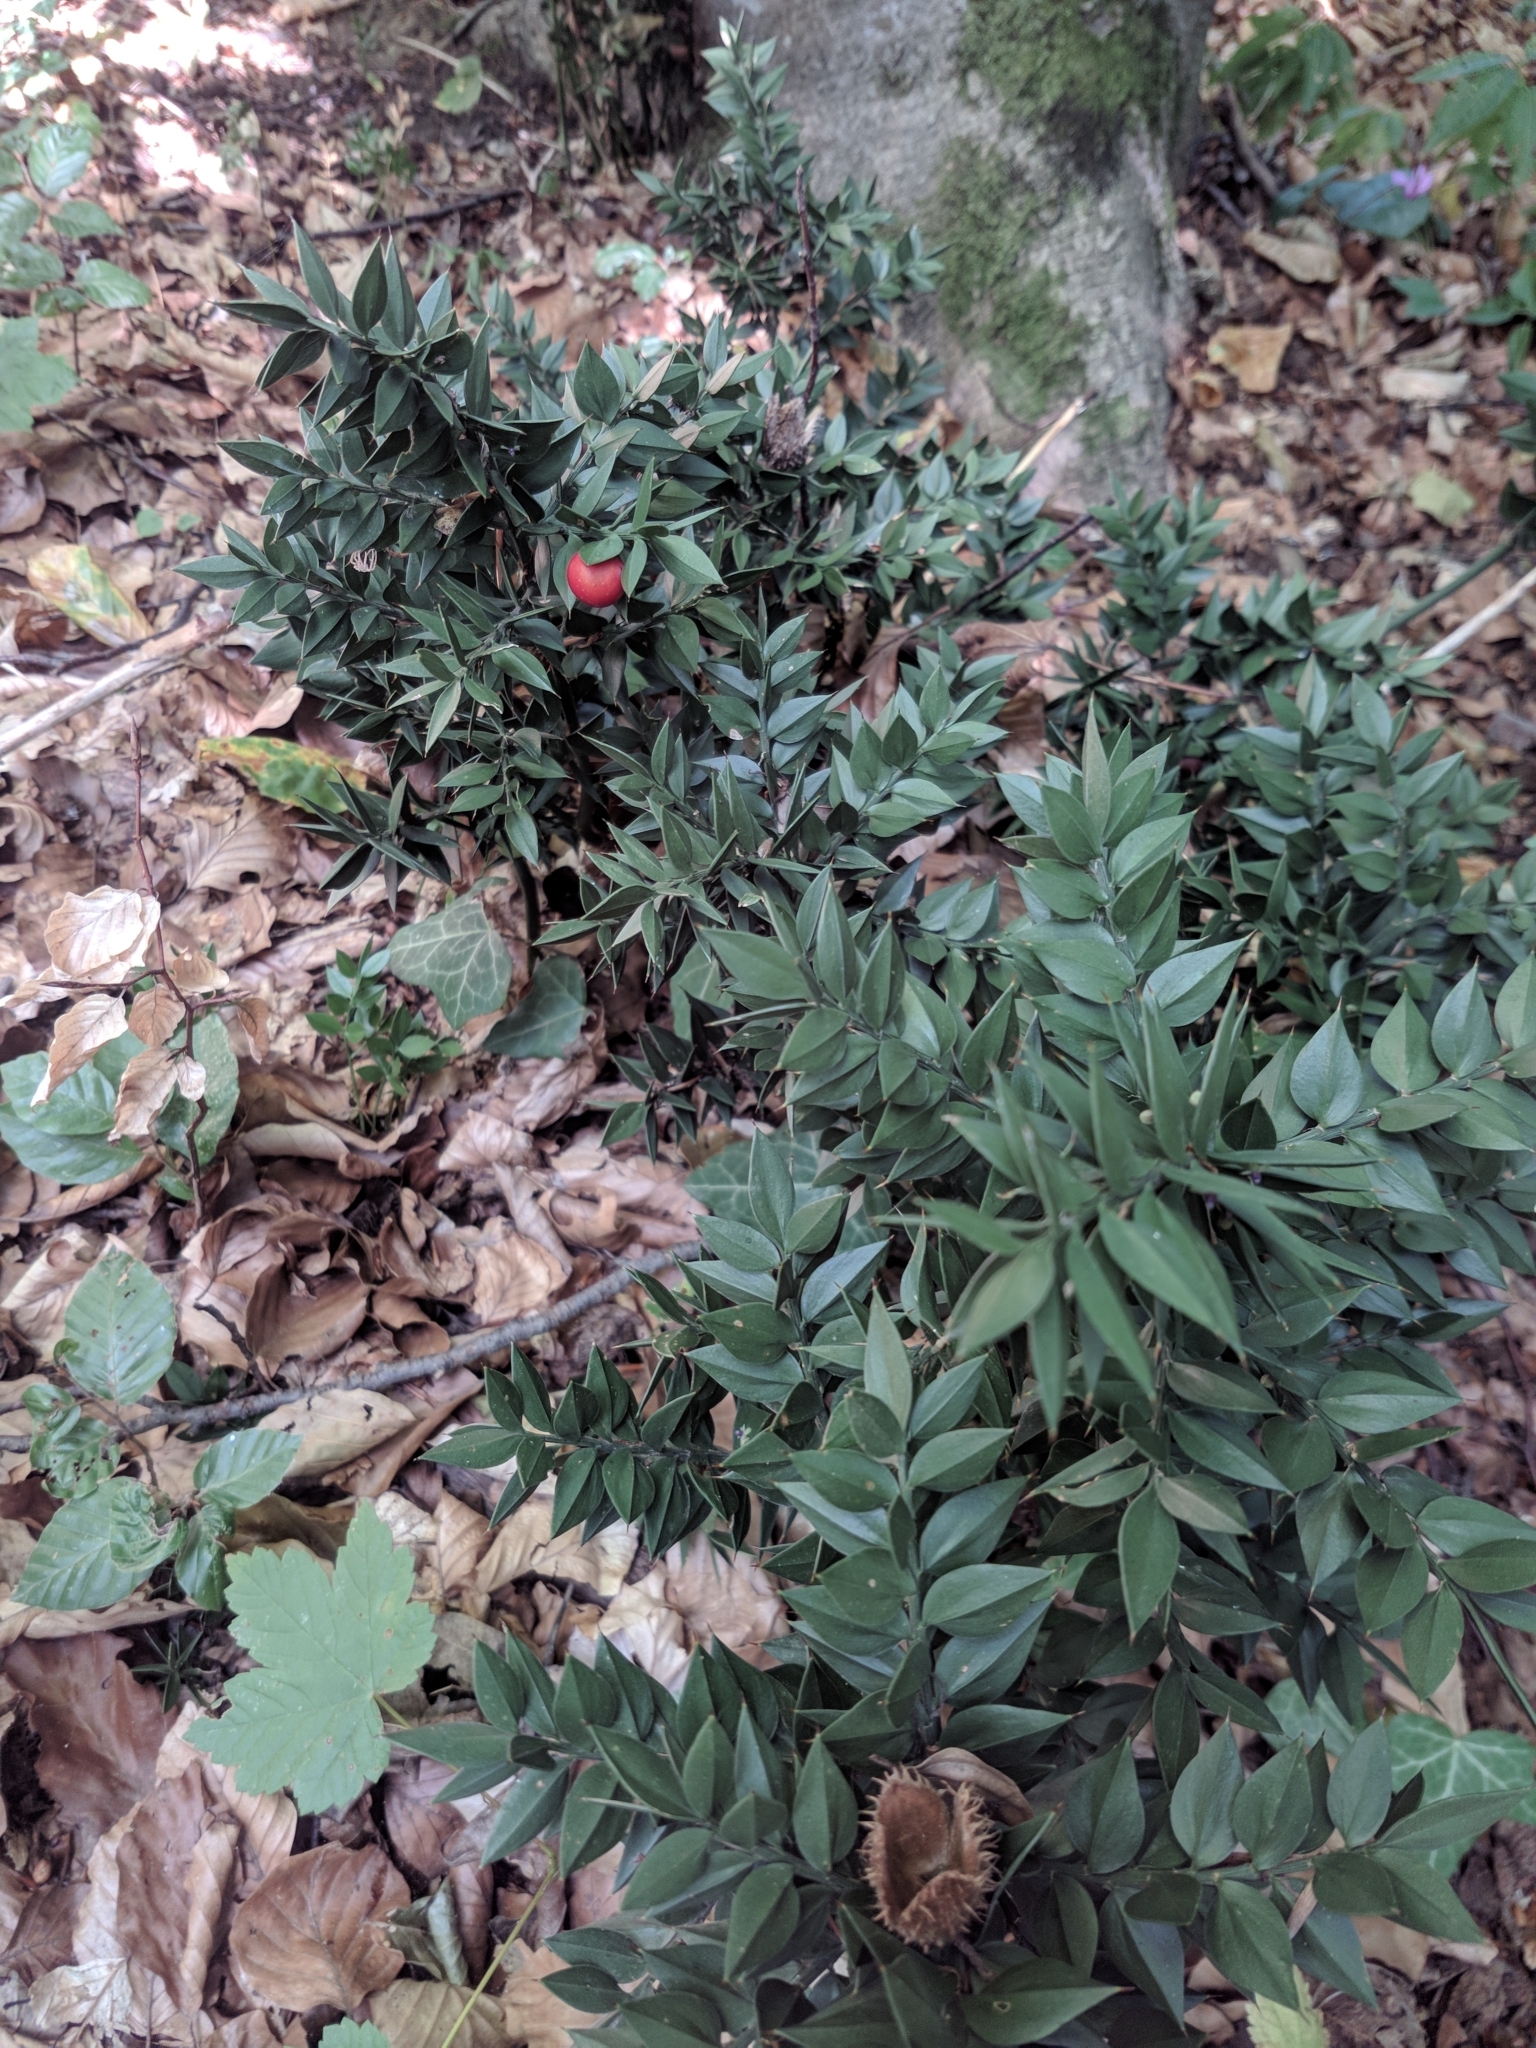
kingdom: Plantae
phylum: Tracheophyta
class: Liliopsida
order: Asparagales
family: Asparagaceae
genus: Ruscus
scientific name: Ruscus aculeatus
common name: Butcher's-broom
